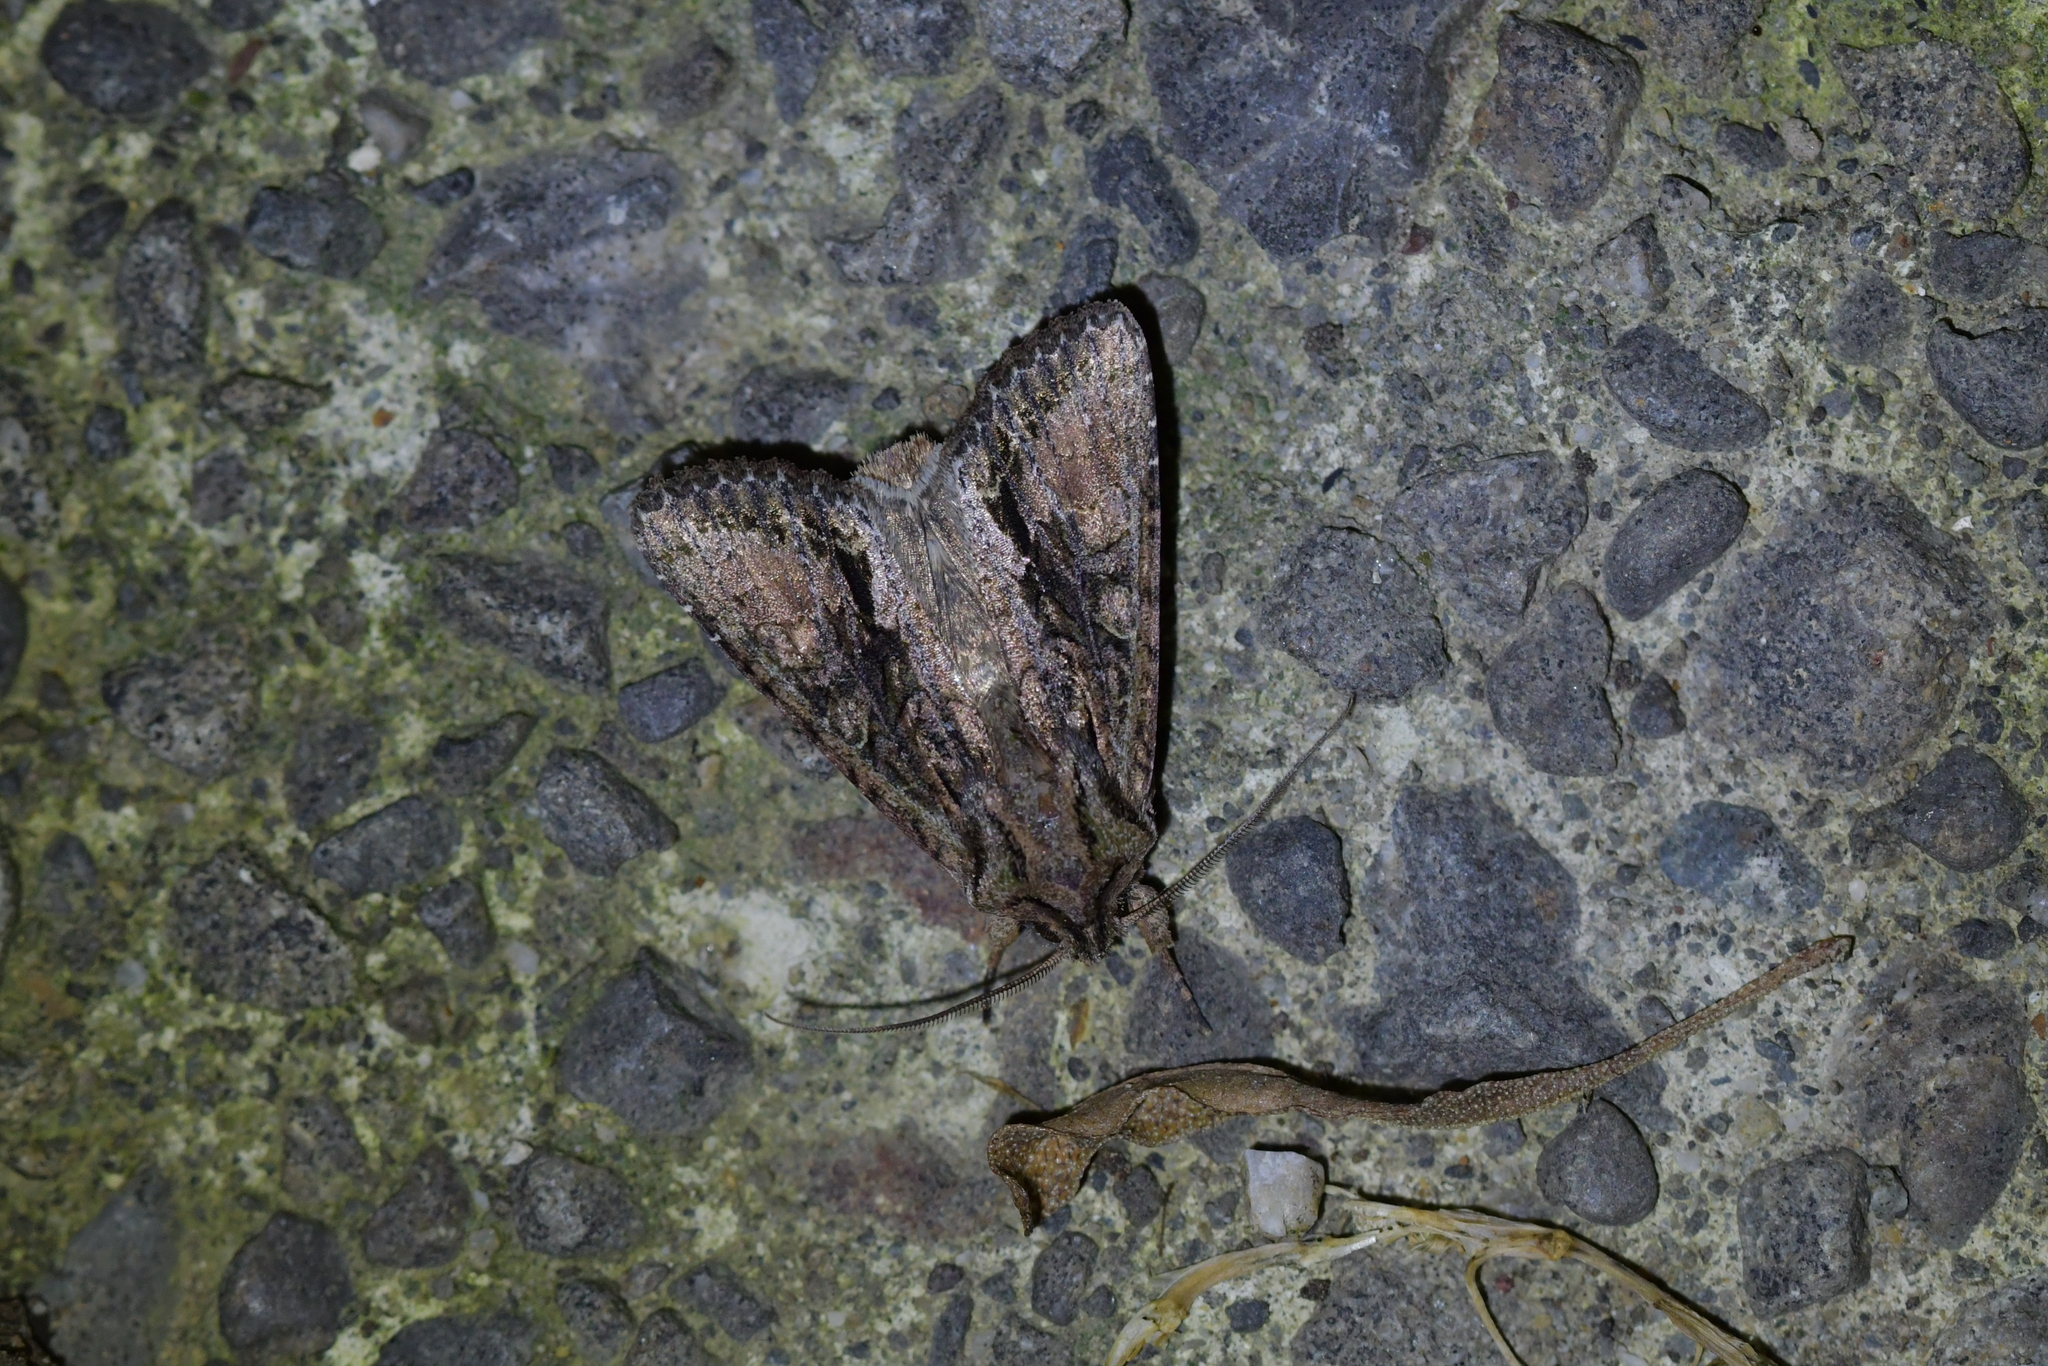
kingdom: Animalia
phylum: Arthropoda
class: Insecta
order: Lepidoptera
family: Noctuidae
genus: Ichneutica
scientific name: Ichneutica mutans
